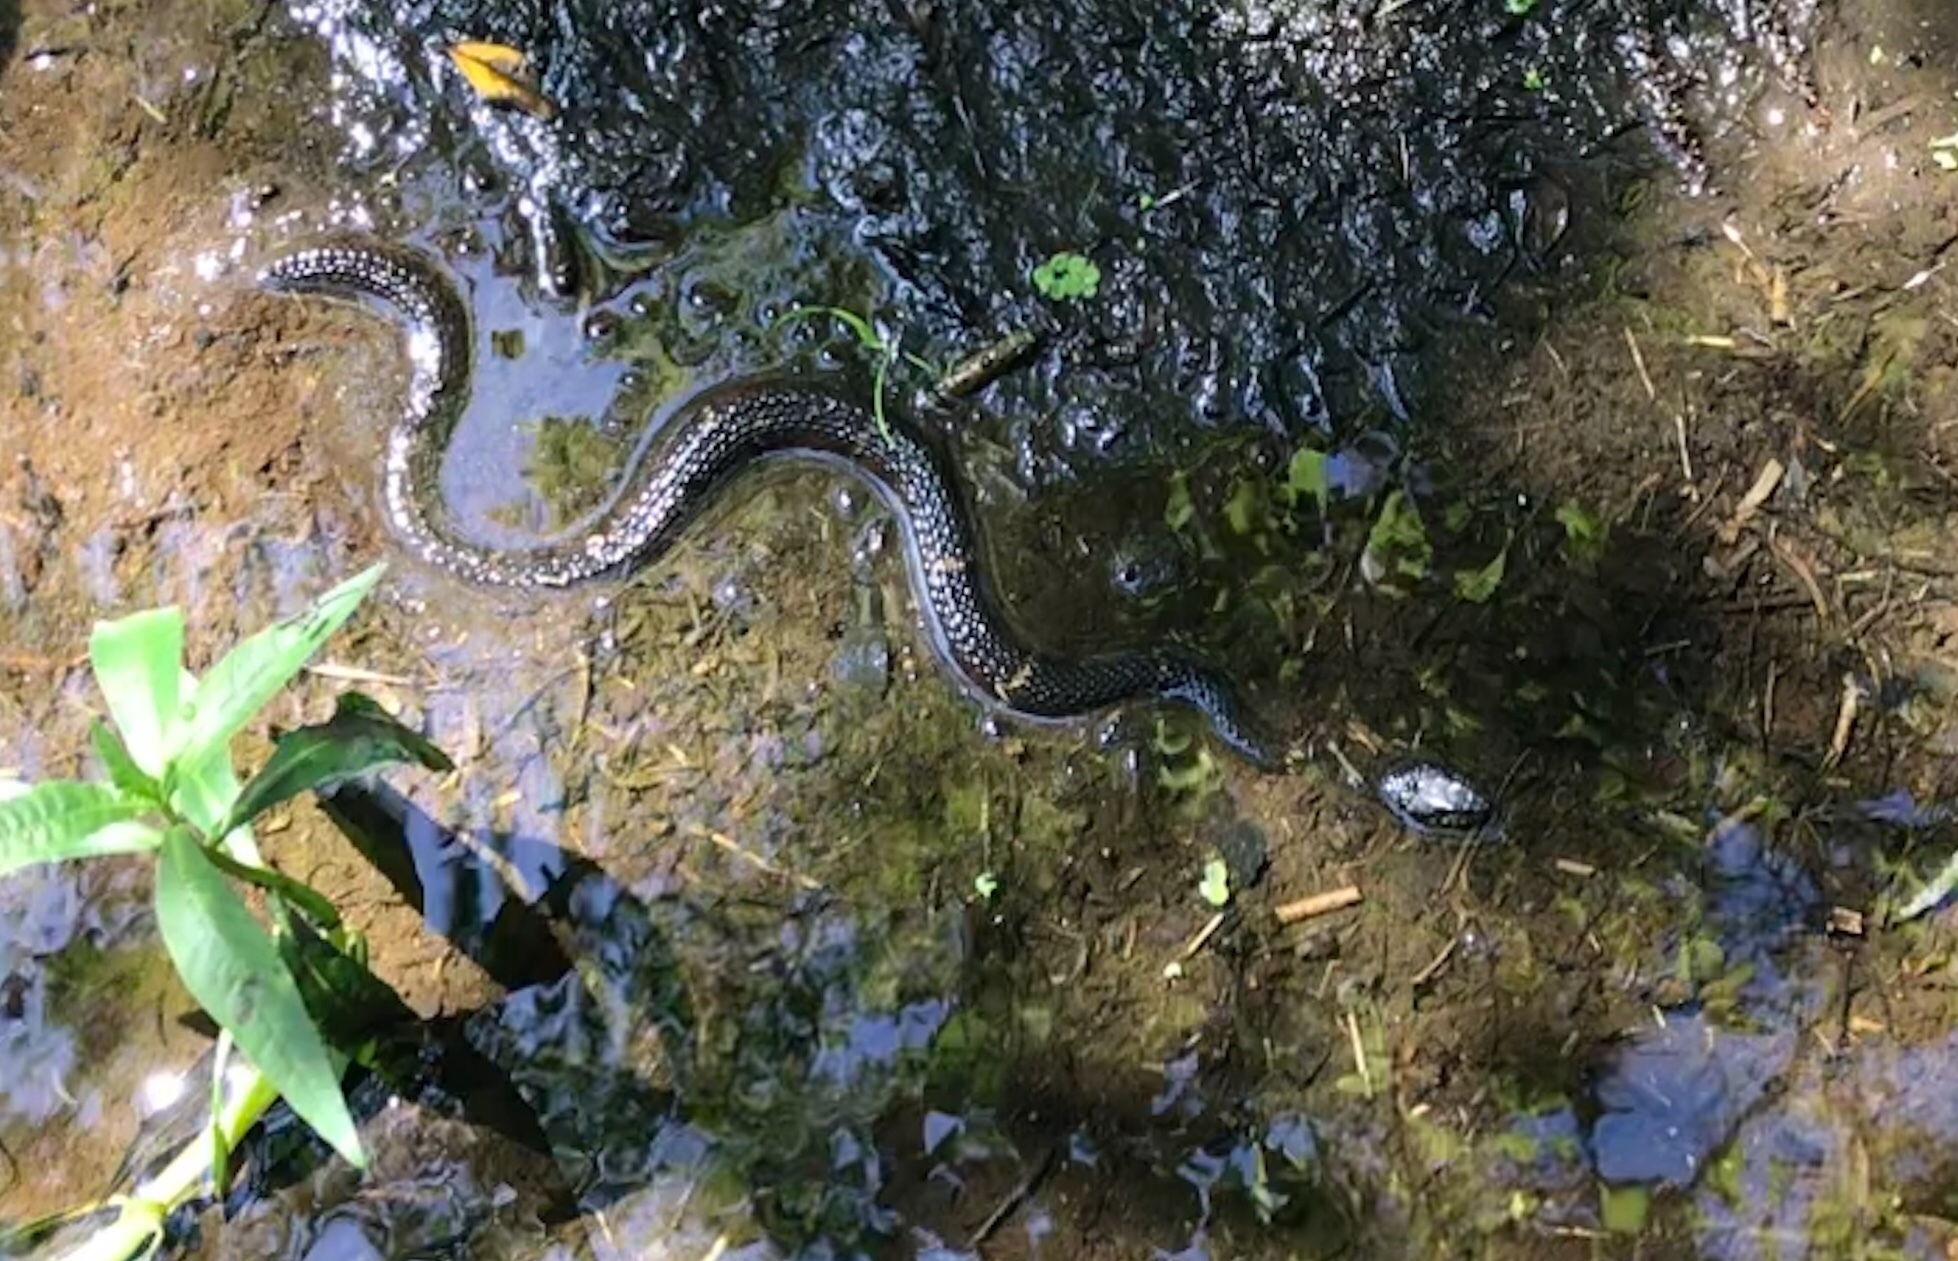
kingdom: Animalia
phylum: Chordata
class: Squamata
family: Colubridae
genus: Nerodia
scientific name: Nerodia fasciata
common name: Southern water snake
